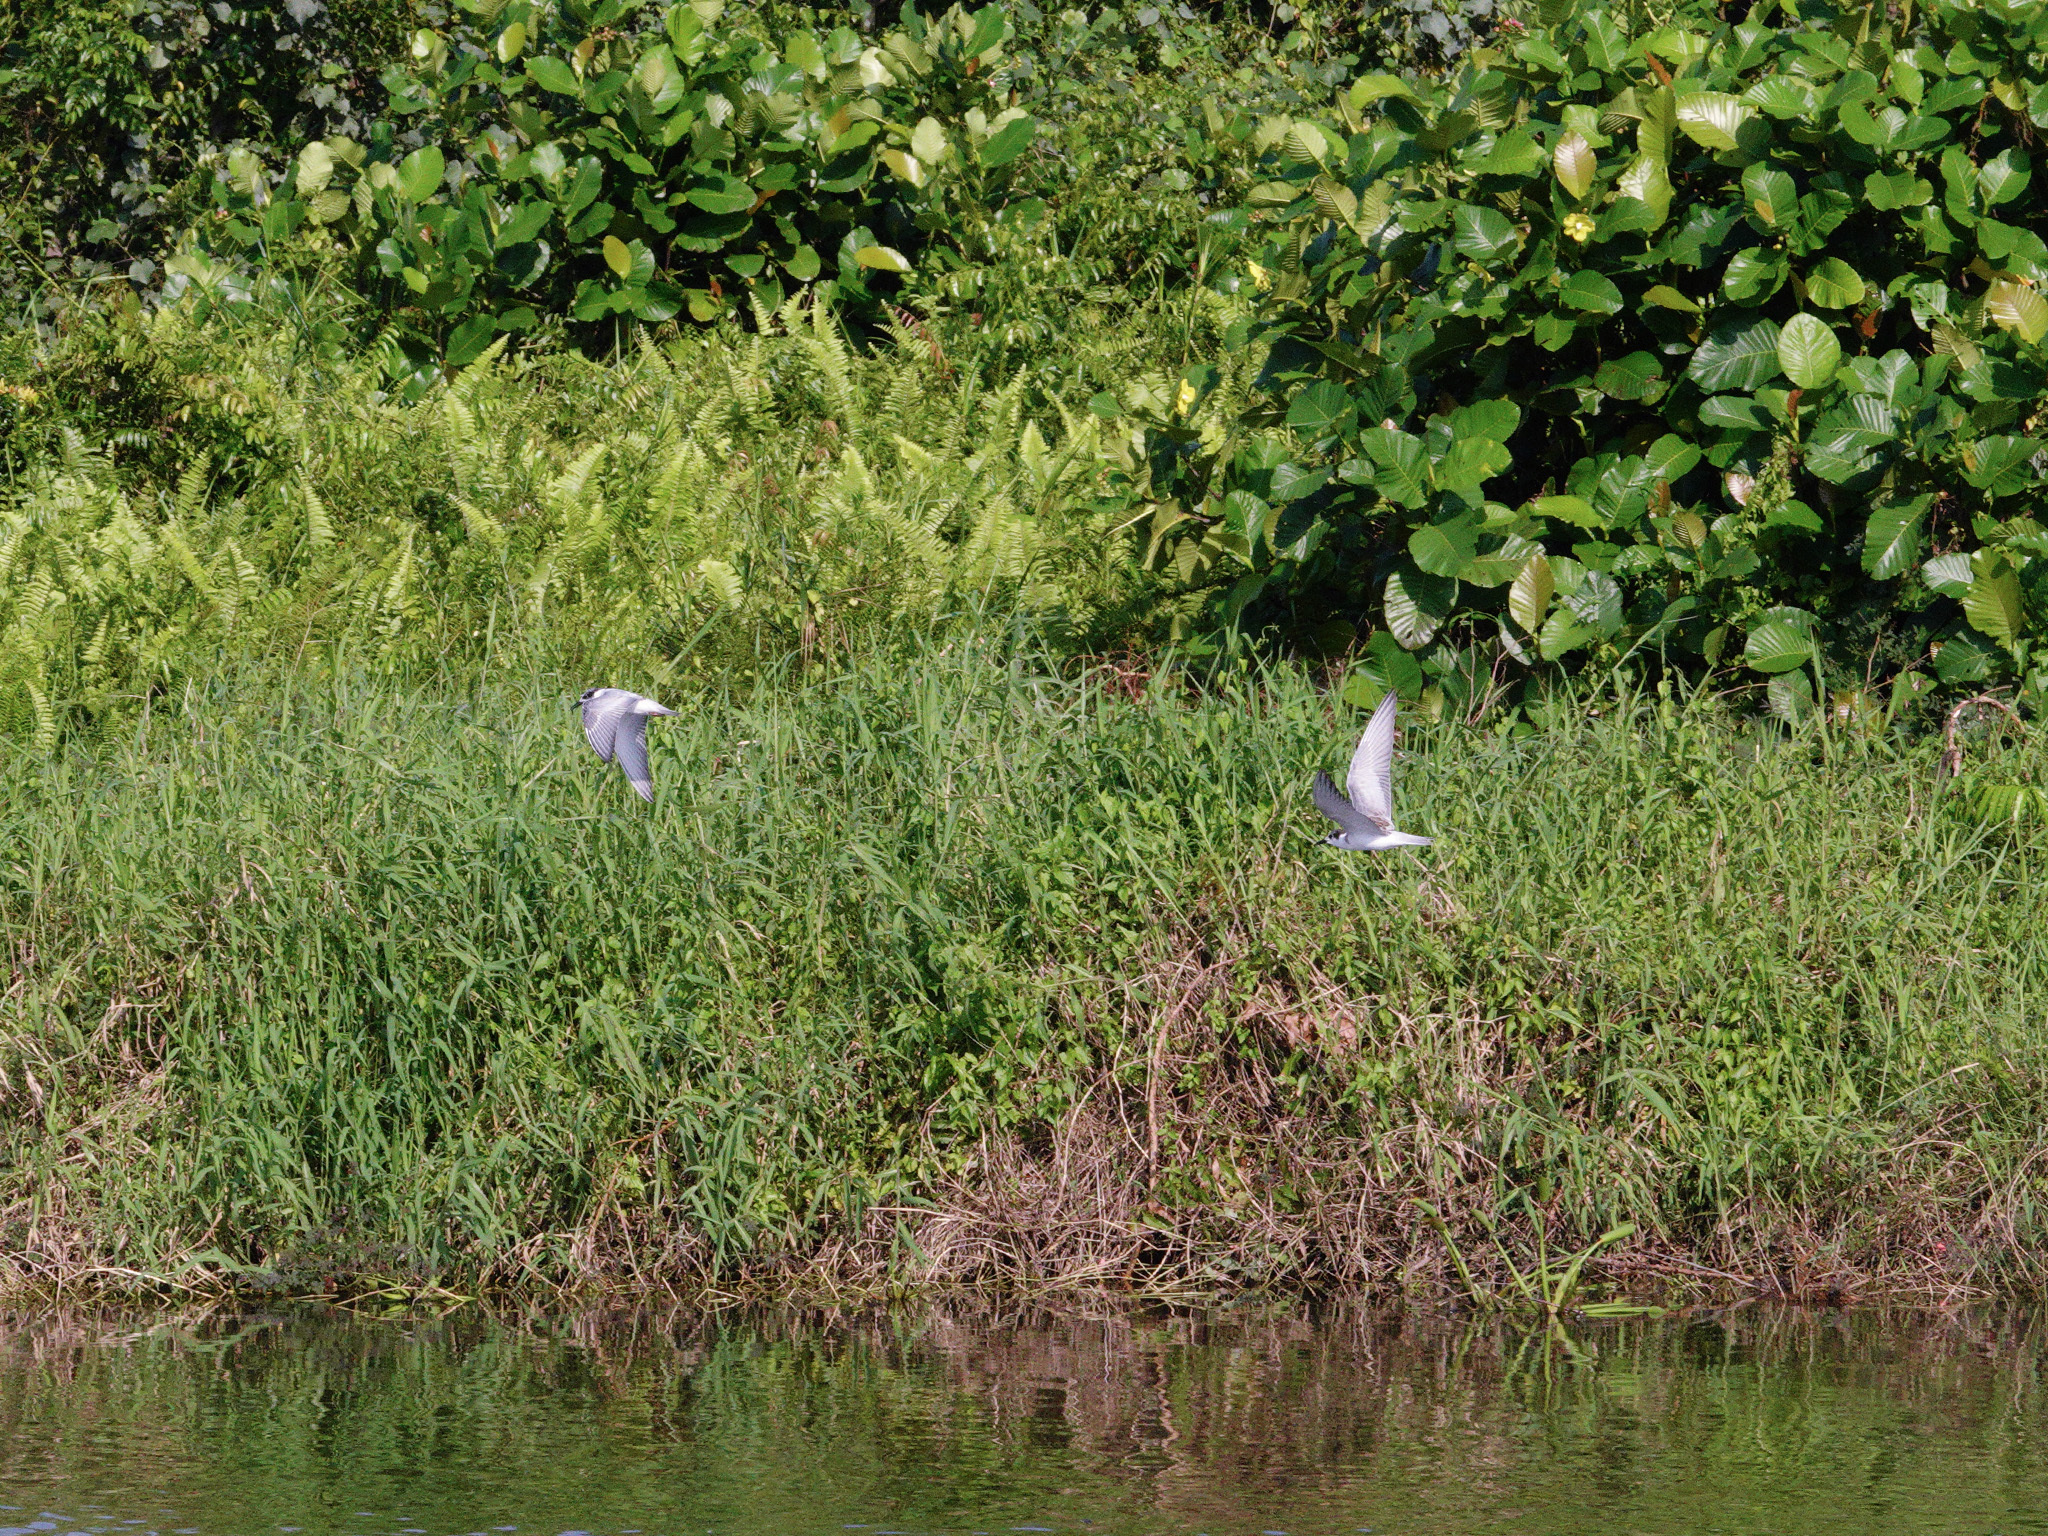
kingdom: Animalia
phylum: Chordata
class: Aves
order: Charadriiformes
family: Laridae
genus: Chlidonias
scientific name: Chlidonias leucopterus
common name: White-winged tern
